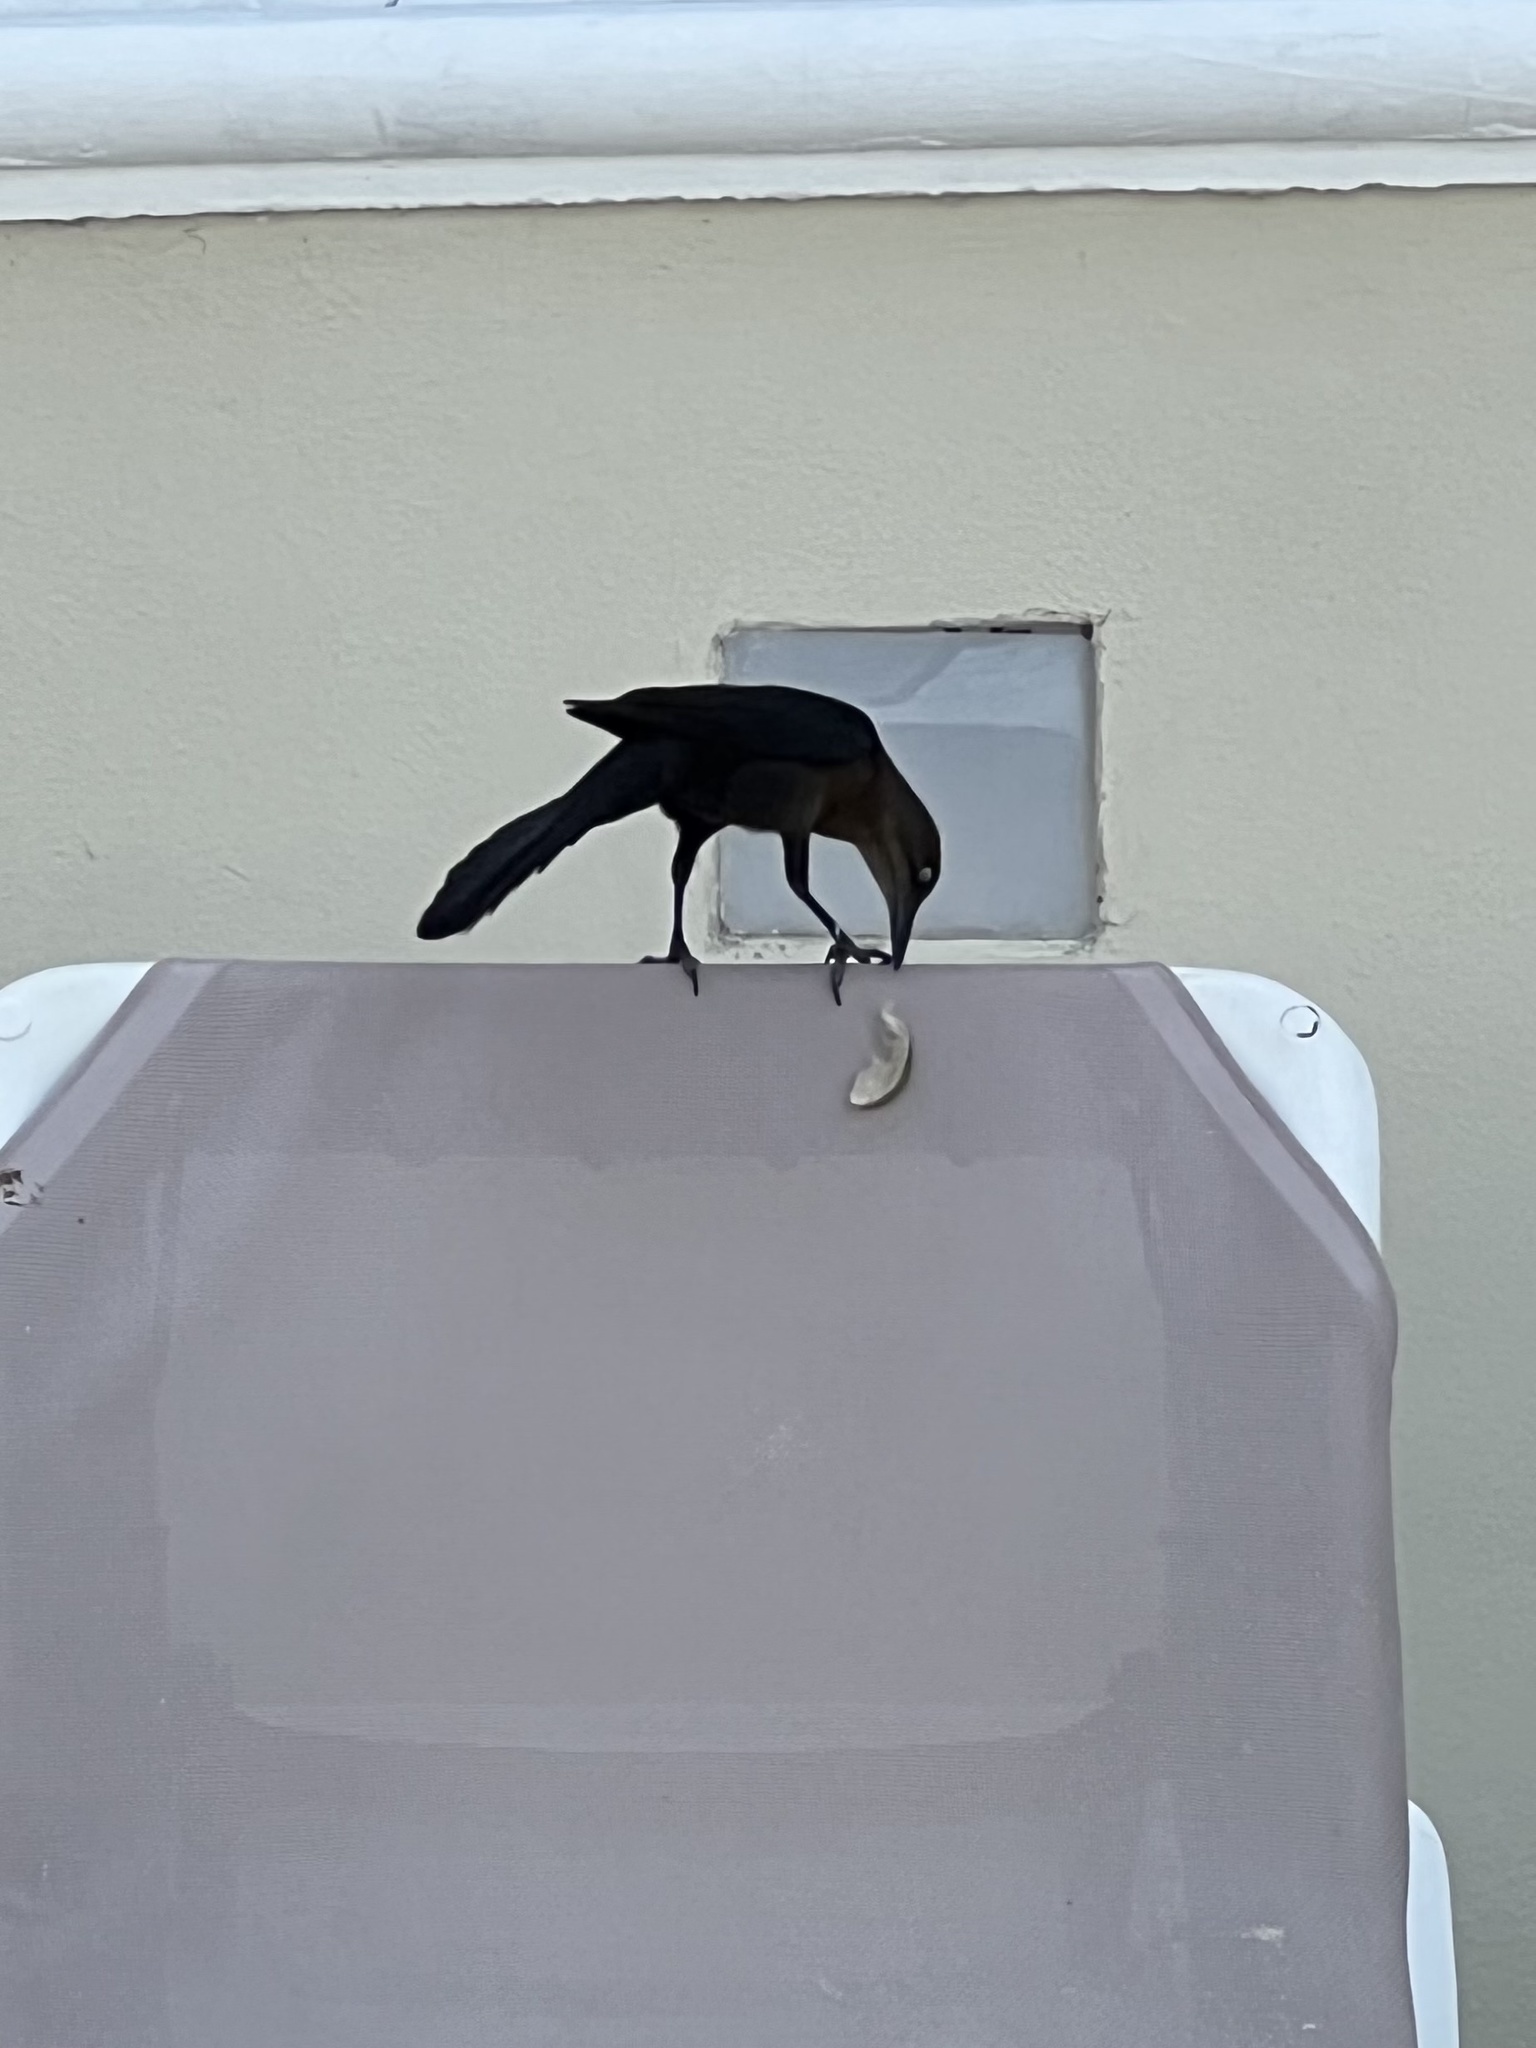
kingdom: Animalia
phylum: Chordata
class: Aves
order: Passeriformes
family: Icteridae
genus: Quiscalus
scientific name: Quiscalus mexicanus
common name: Great-tailed grackle
